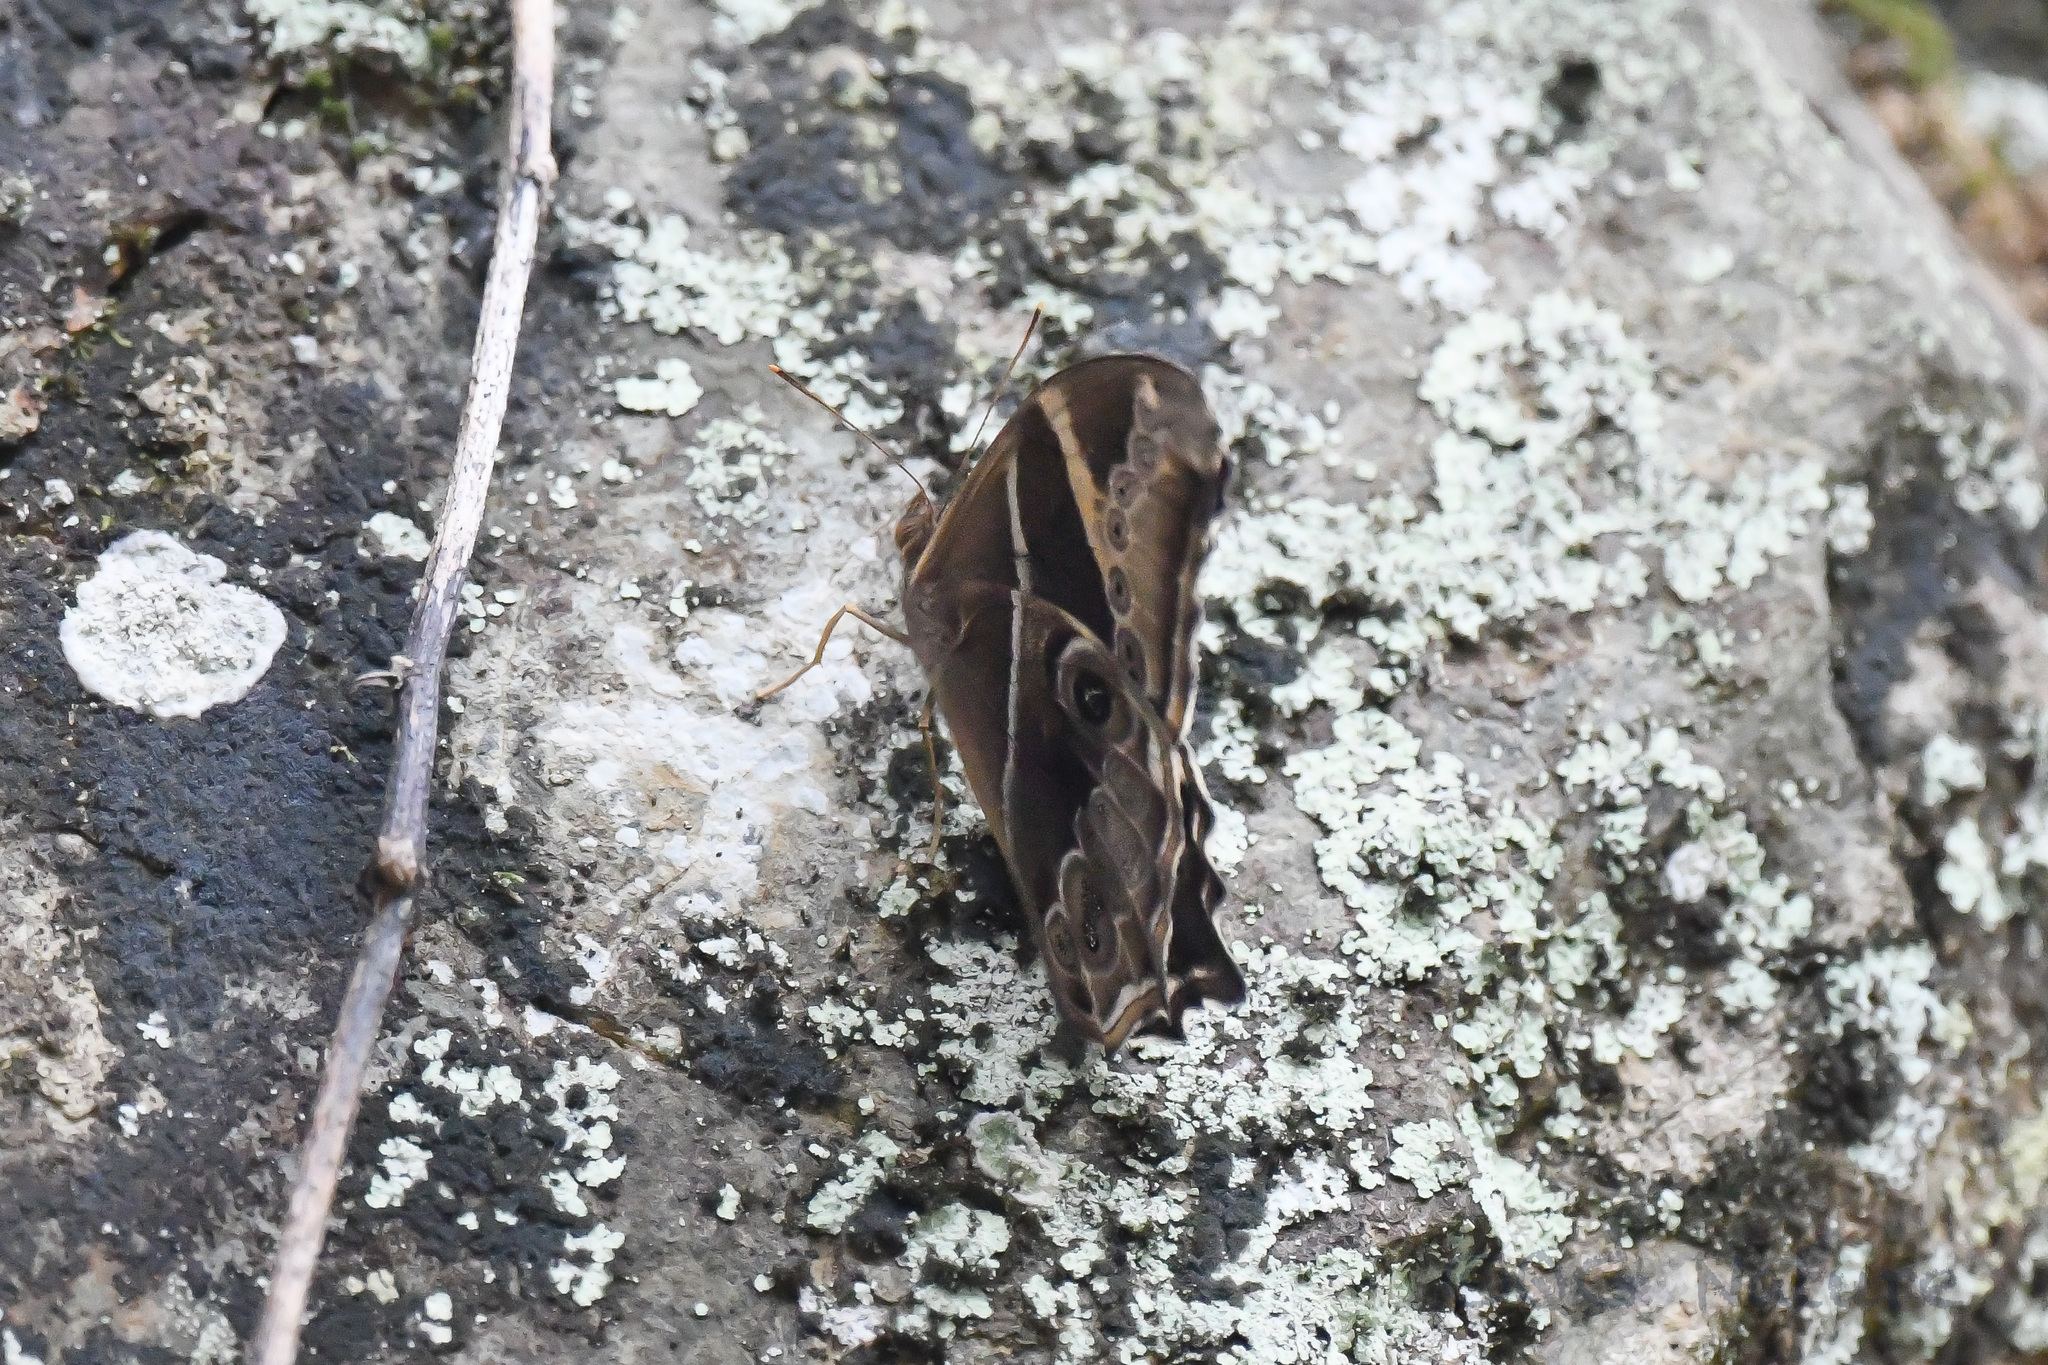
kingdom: Animalia
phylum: Arthropoda
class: Insecta
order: Lepidoptera
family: Nymphalidae
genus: Lethe
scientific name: Lethe europa
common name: Bamboo treebrown
